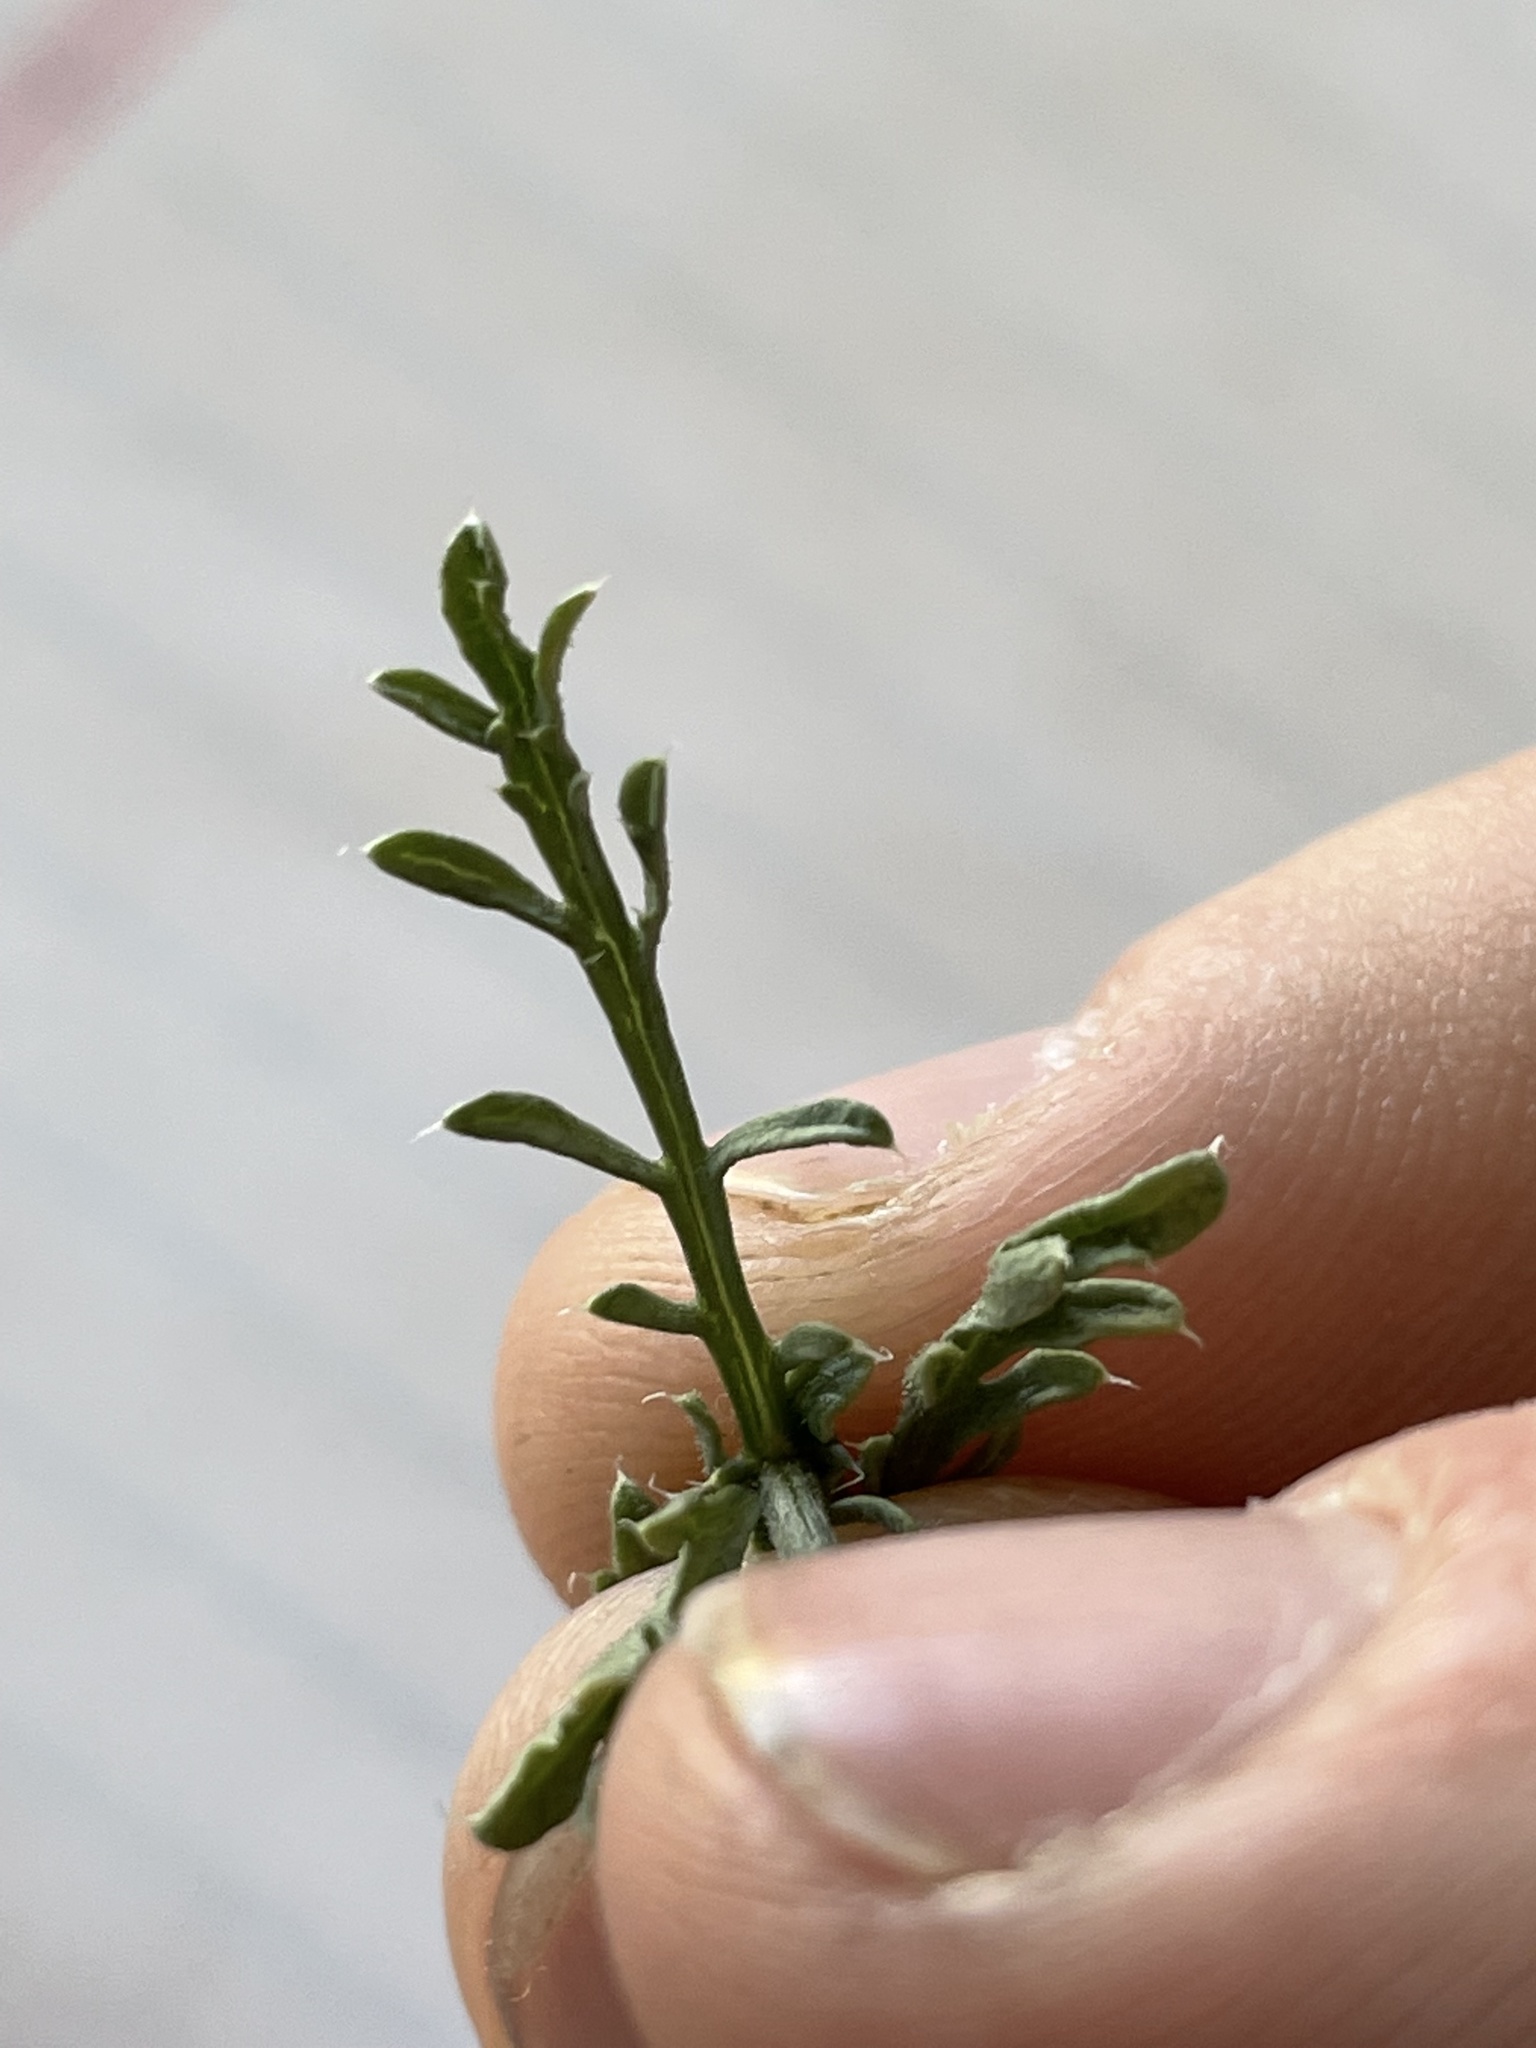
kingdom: Plantae
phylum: Tracheophyta
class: Magnoliopsida
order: Asterales
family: Asteraceae
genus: Xanthisma
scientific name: Xanthisma spinulosum
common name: Spiny goldenweed
